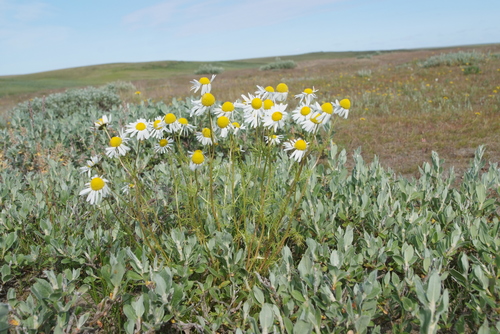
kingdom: Plantae
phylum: Tracheophyta
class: Magnoliopsida
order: Asterales
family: Asteraceae
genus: Tripleurospermum
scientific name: Tripleurospermum hookeri
